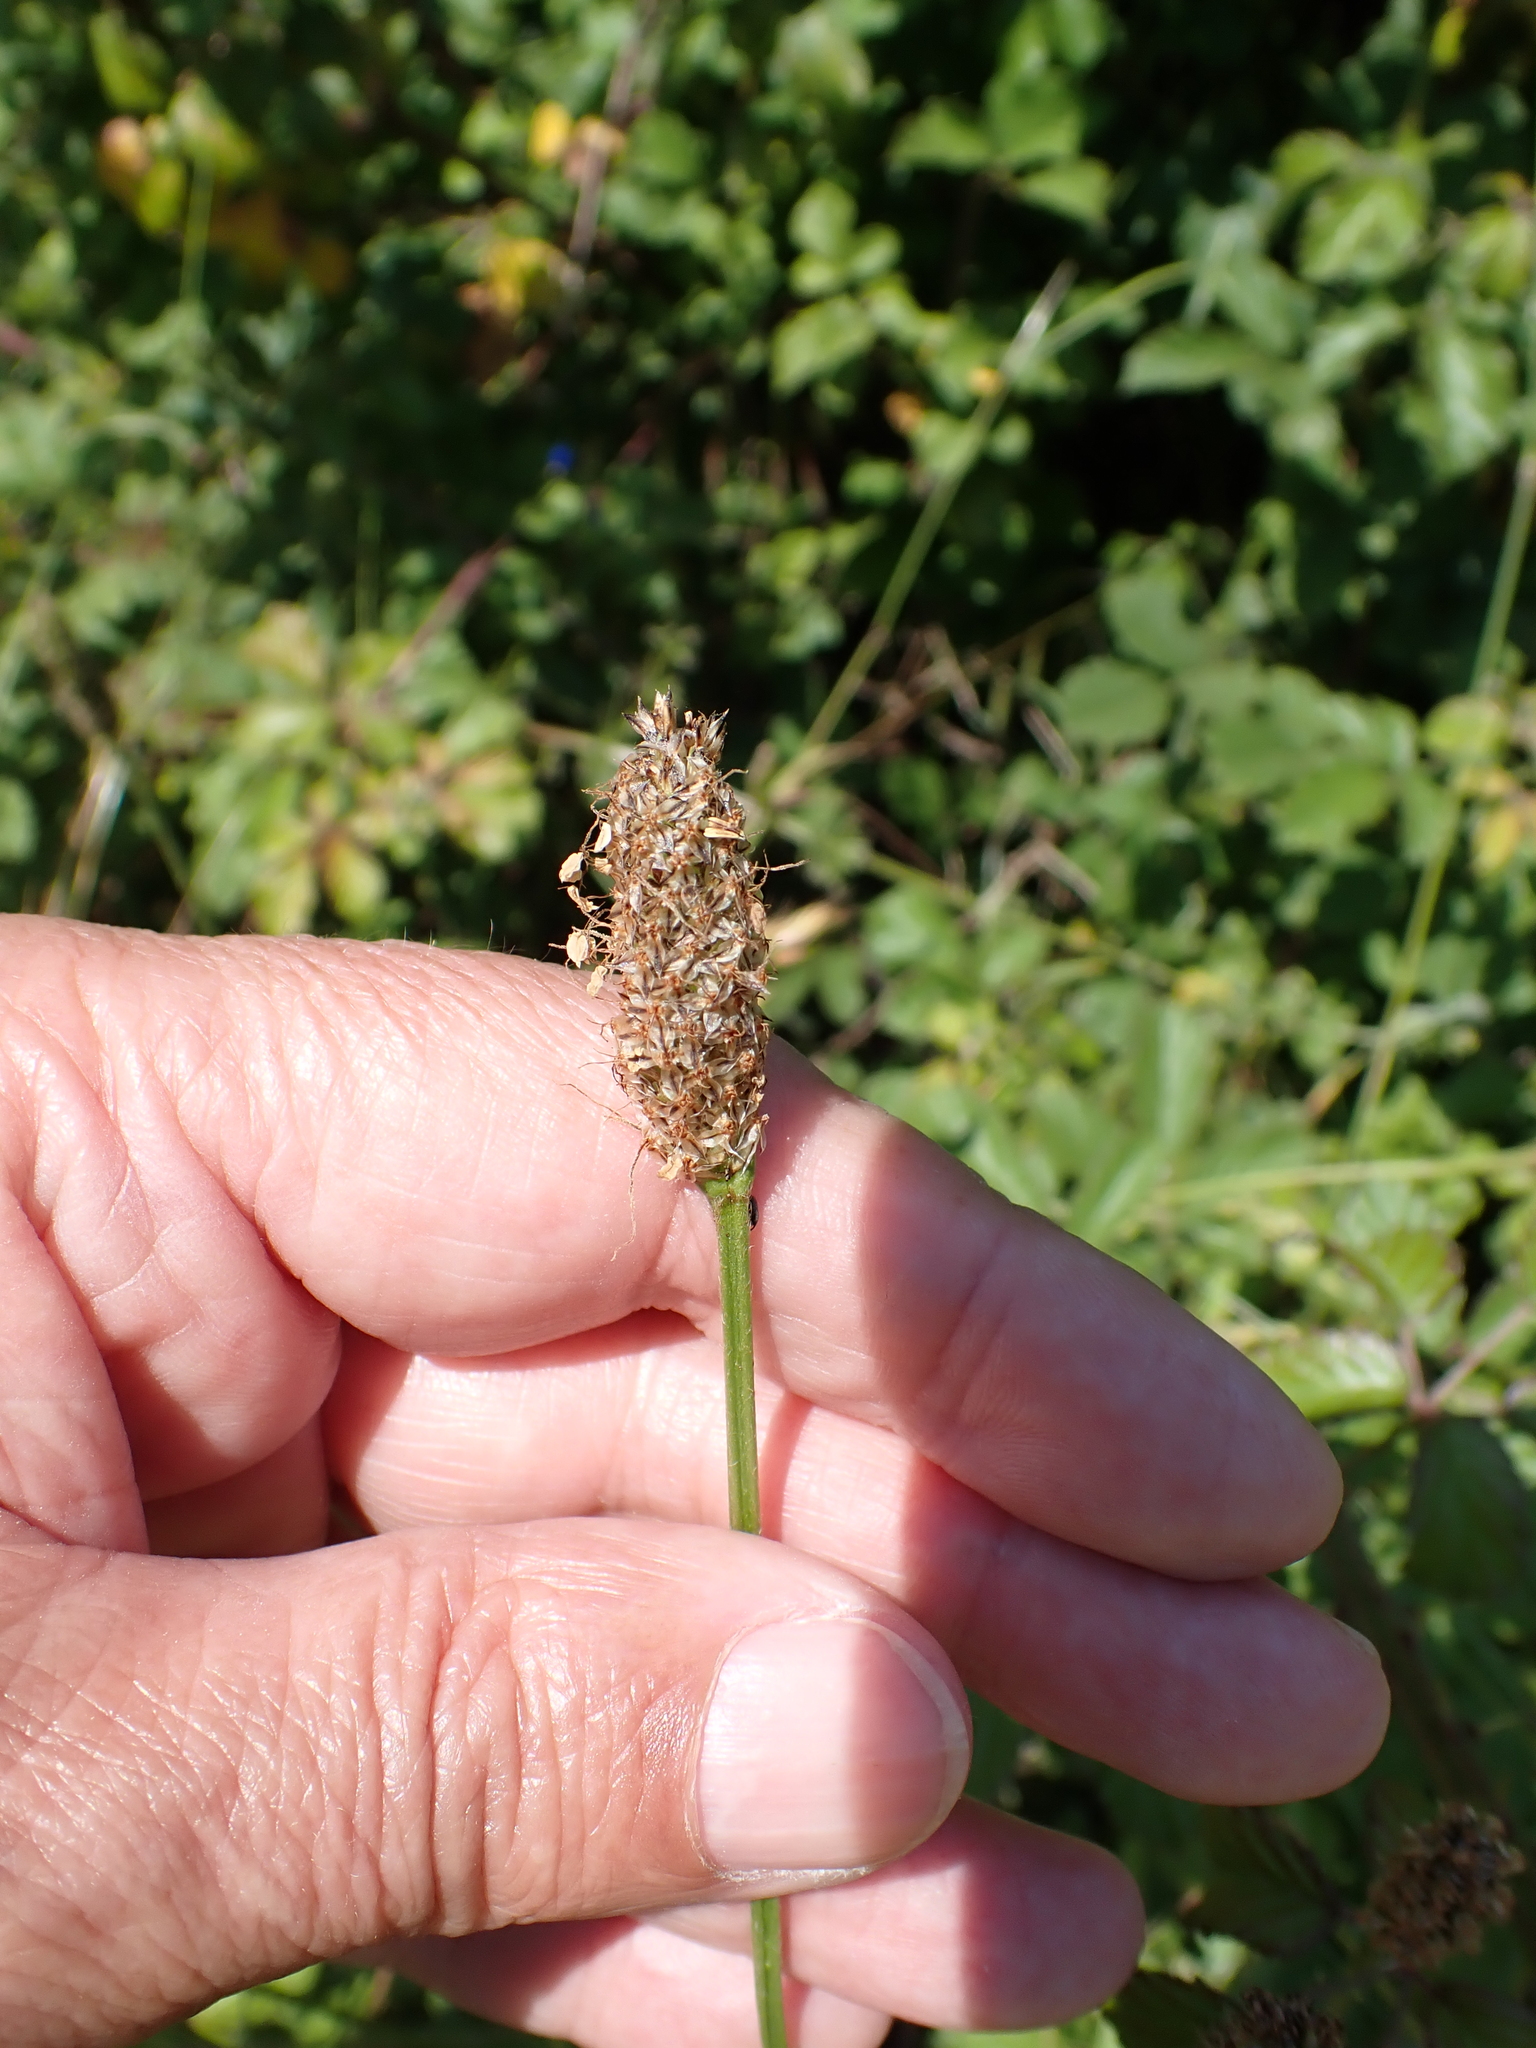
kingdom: Plantae
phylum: Tracheophyta
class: Magnoliopsida
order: Lamiales
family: Plantaginaceae
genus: Plantago
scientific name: Plantago lanceolata
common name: Ribwort plantain
